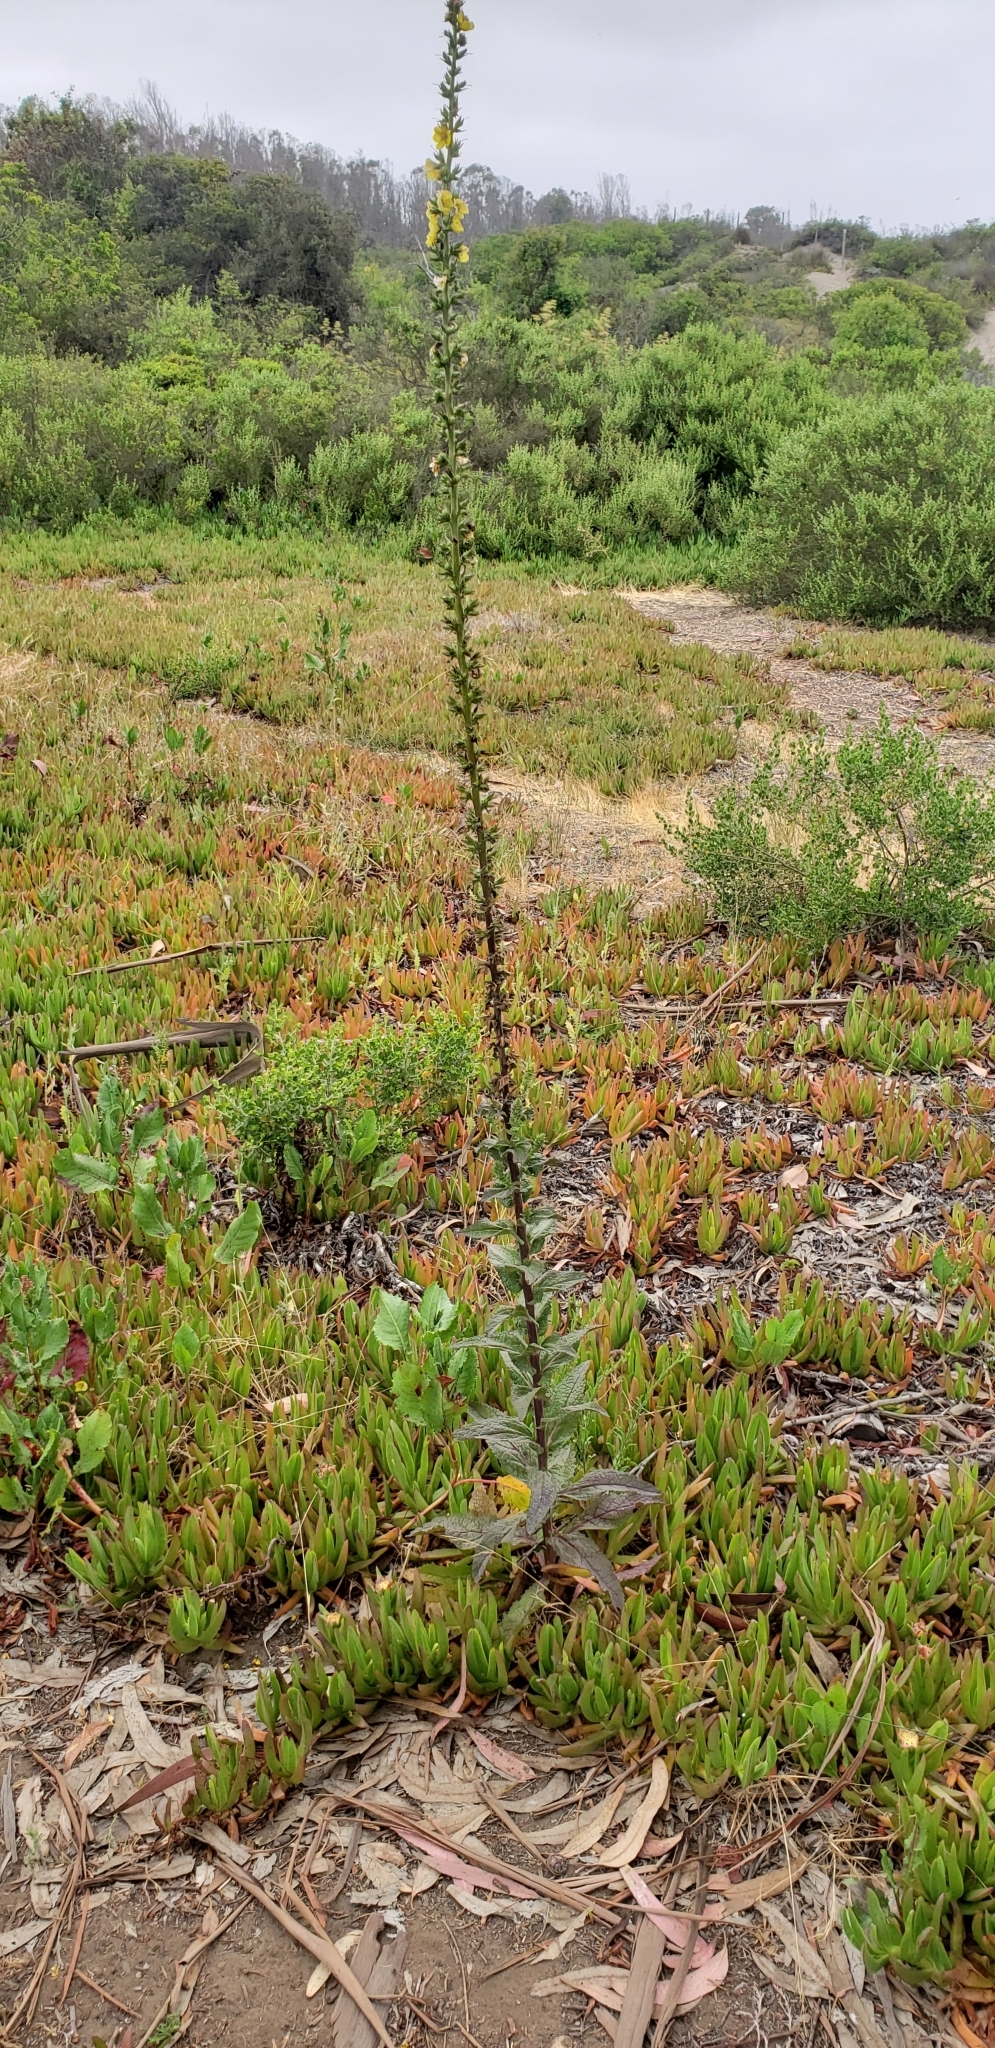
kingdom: Plantae
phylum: Tracheophyta
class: Magnoliopsida
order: Lamiales
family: Scrophulariaceae
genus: Verbascum
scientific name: Verbascum virgatum
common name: Twiggy mullein
